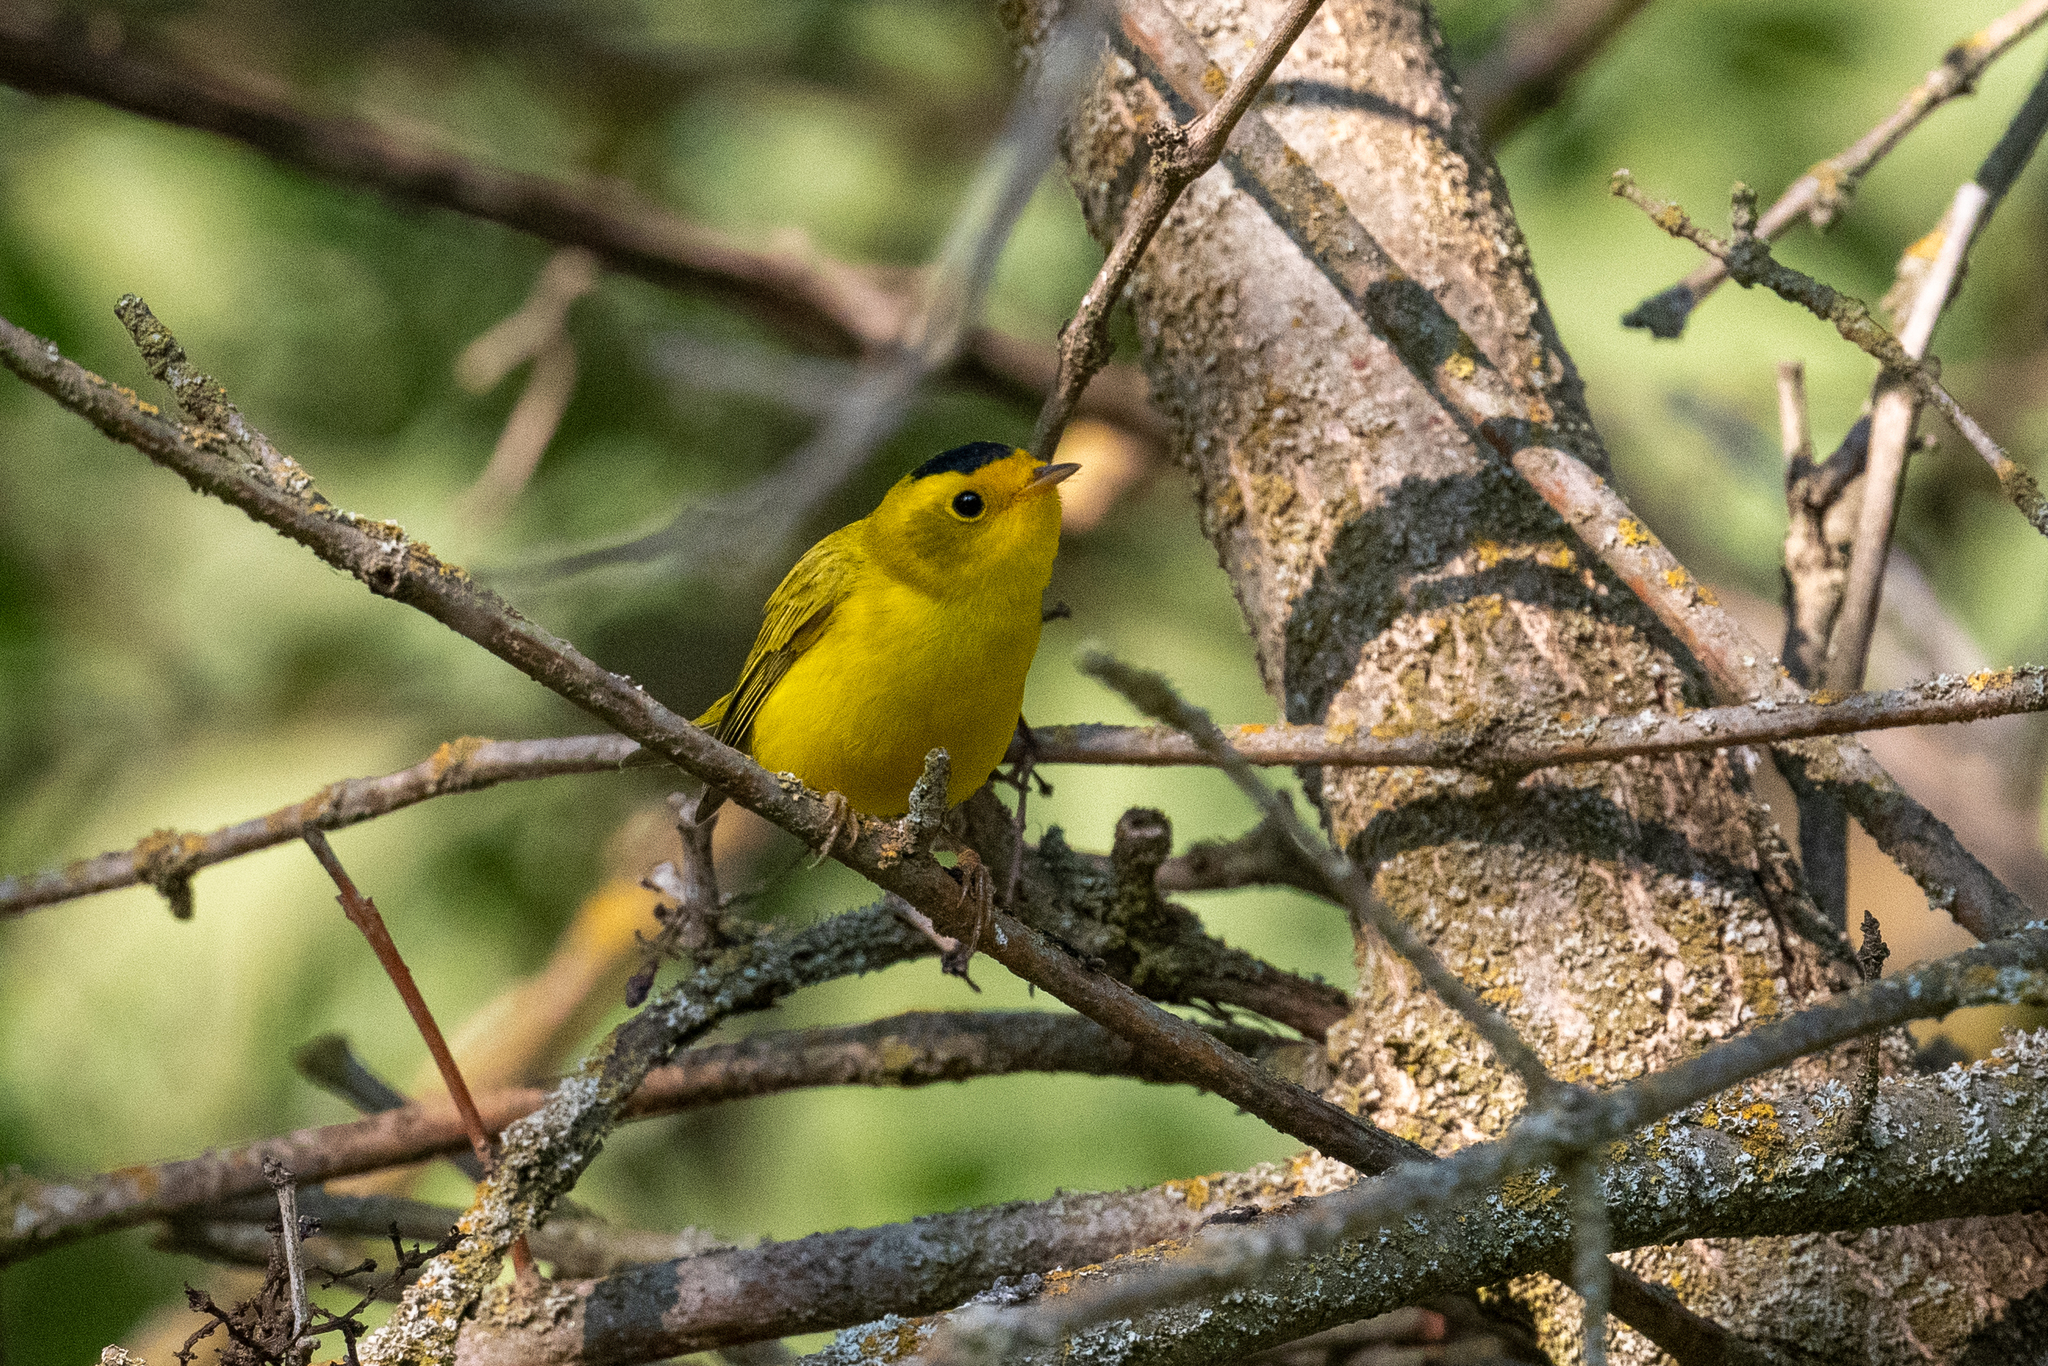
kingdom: Animalia
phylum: Chordata
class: Aves
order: Passeriformes
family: Parulidae
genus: Cardellina
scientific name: Cardellina pusilla
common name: Wilson's warbler
